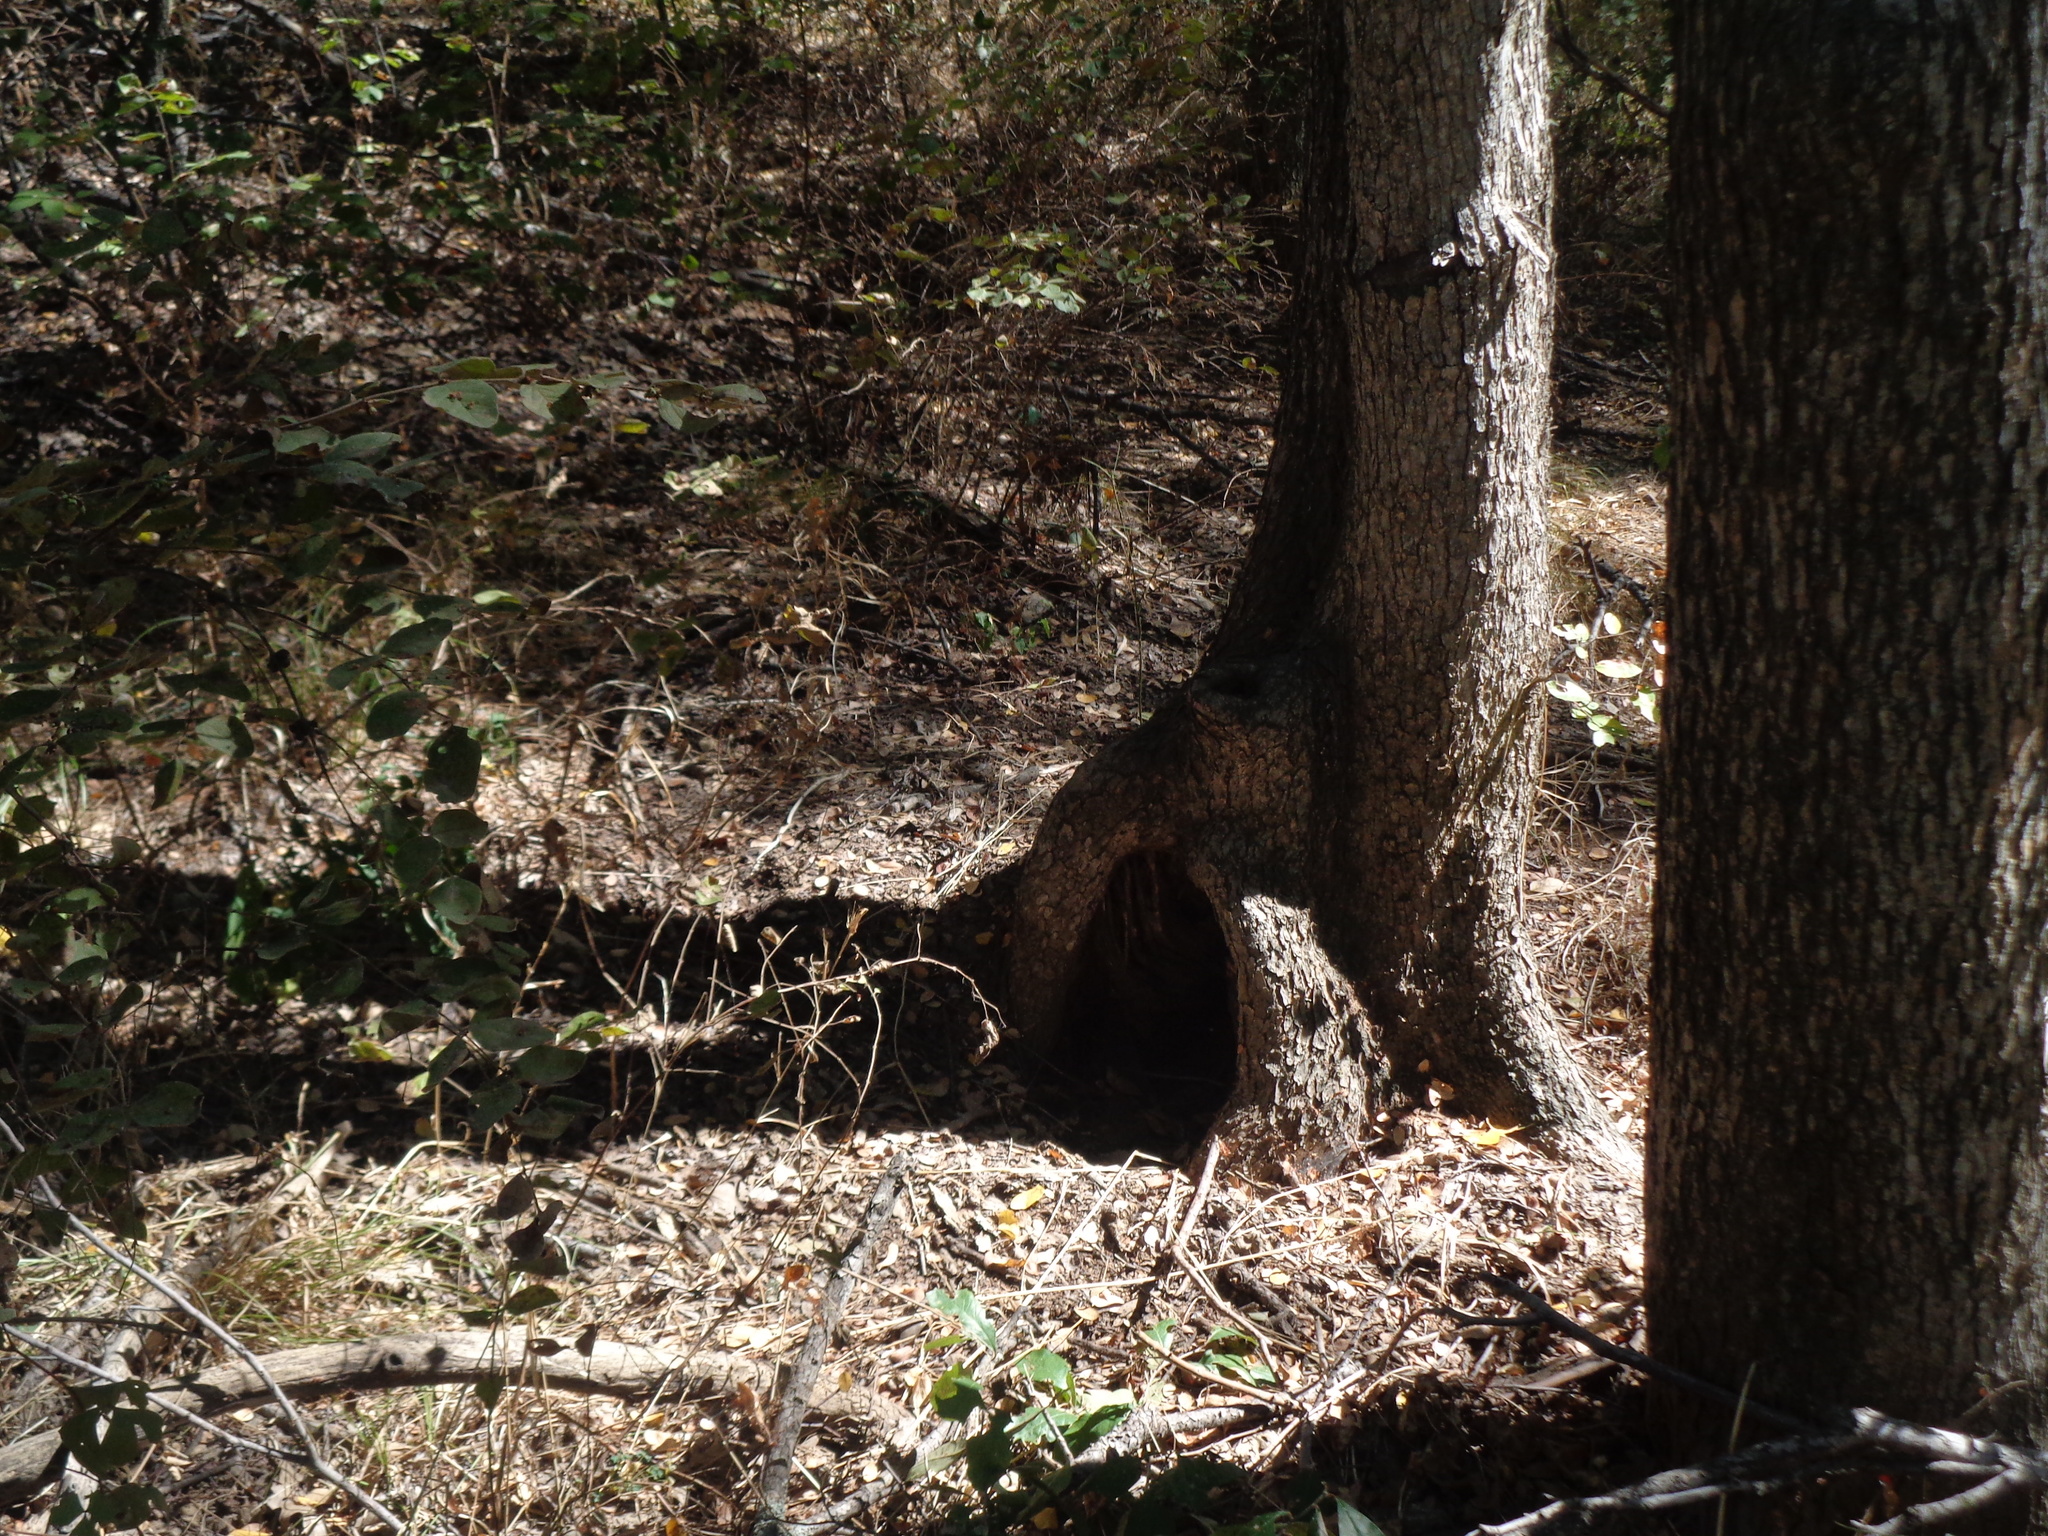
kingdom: Plantae
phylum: Tracheophyta
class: Magnoliopsida
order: Rosales
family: Ulmaceae
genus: Ulmus
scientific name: Ulmus crassifolia
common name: Basket elm
